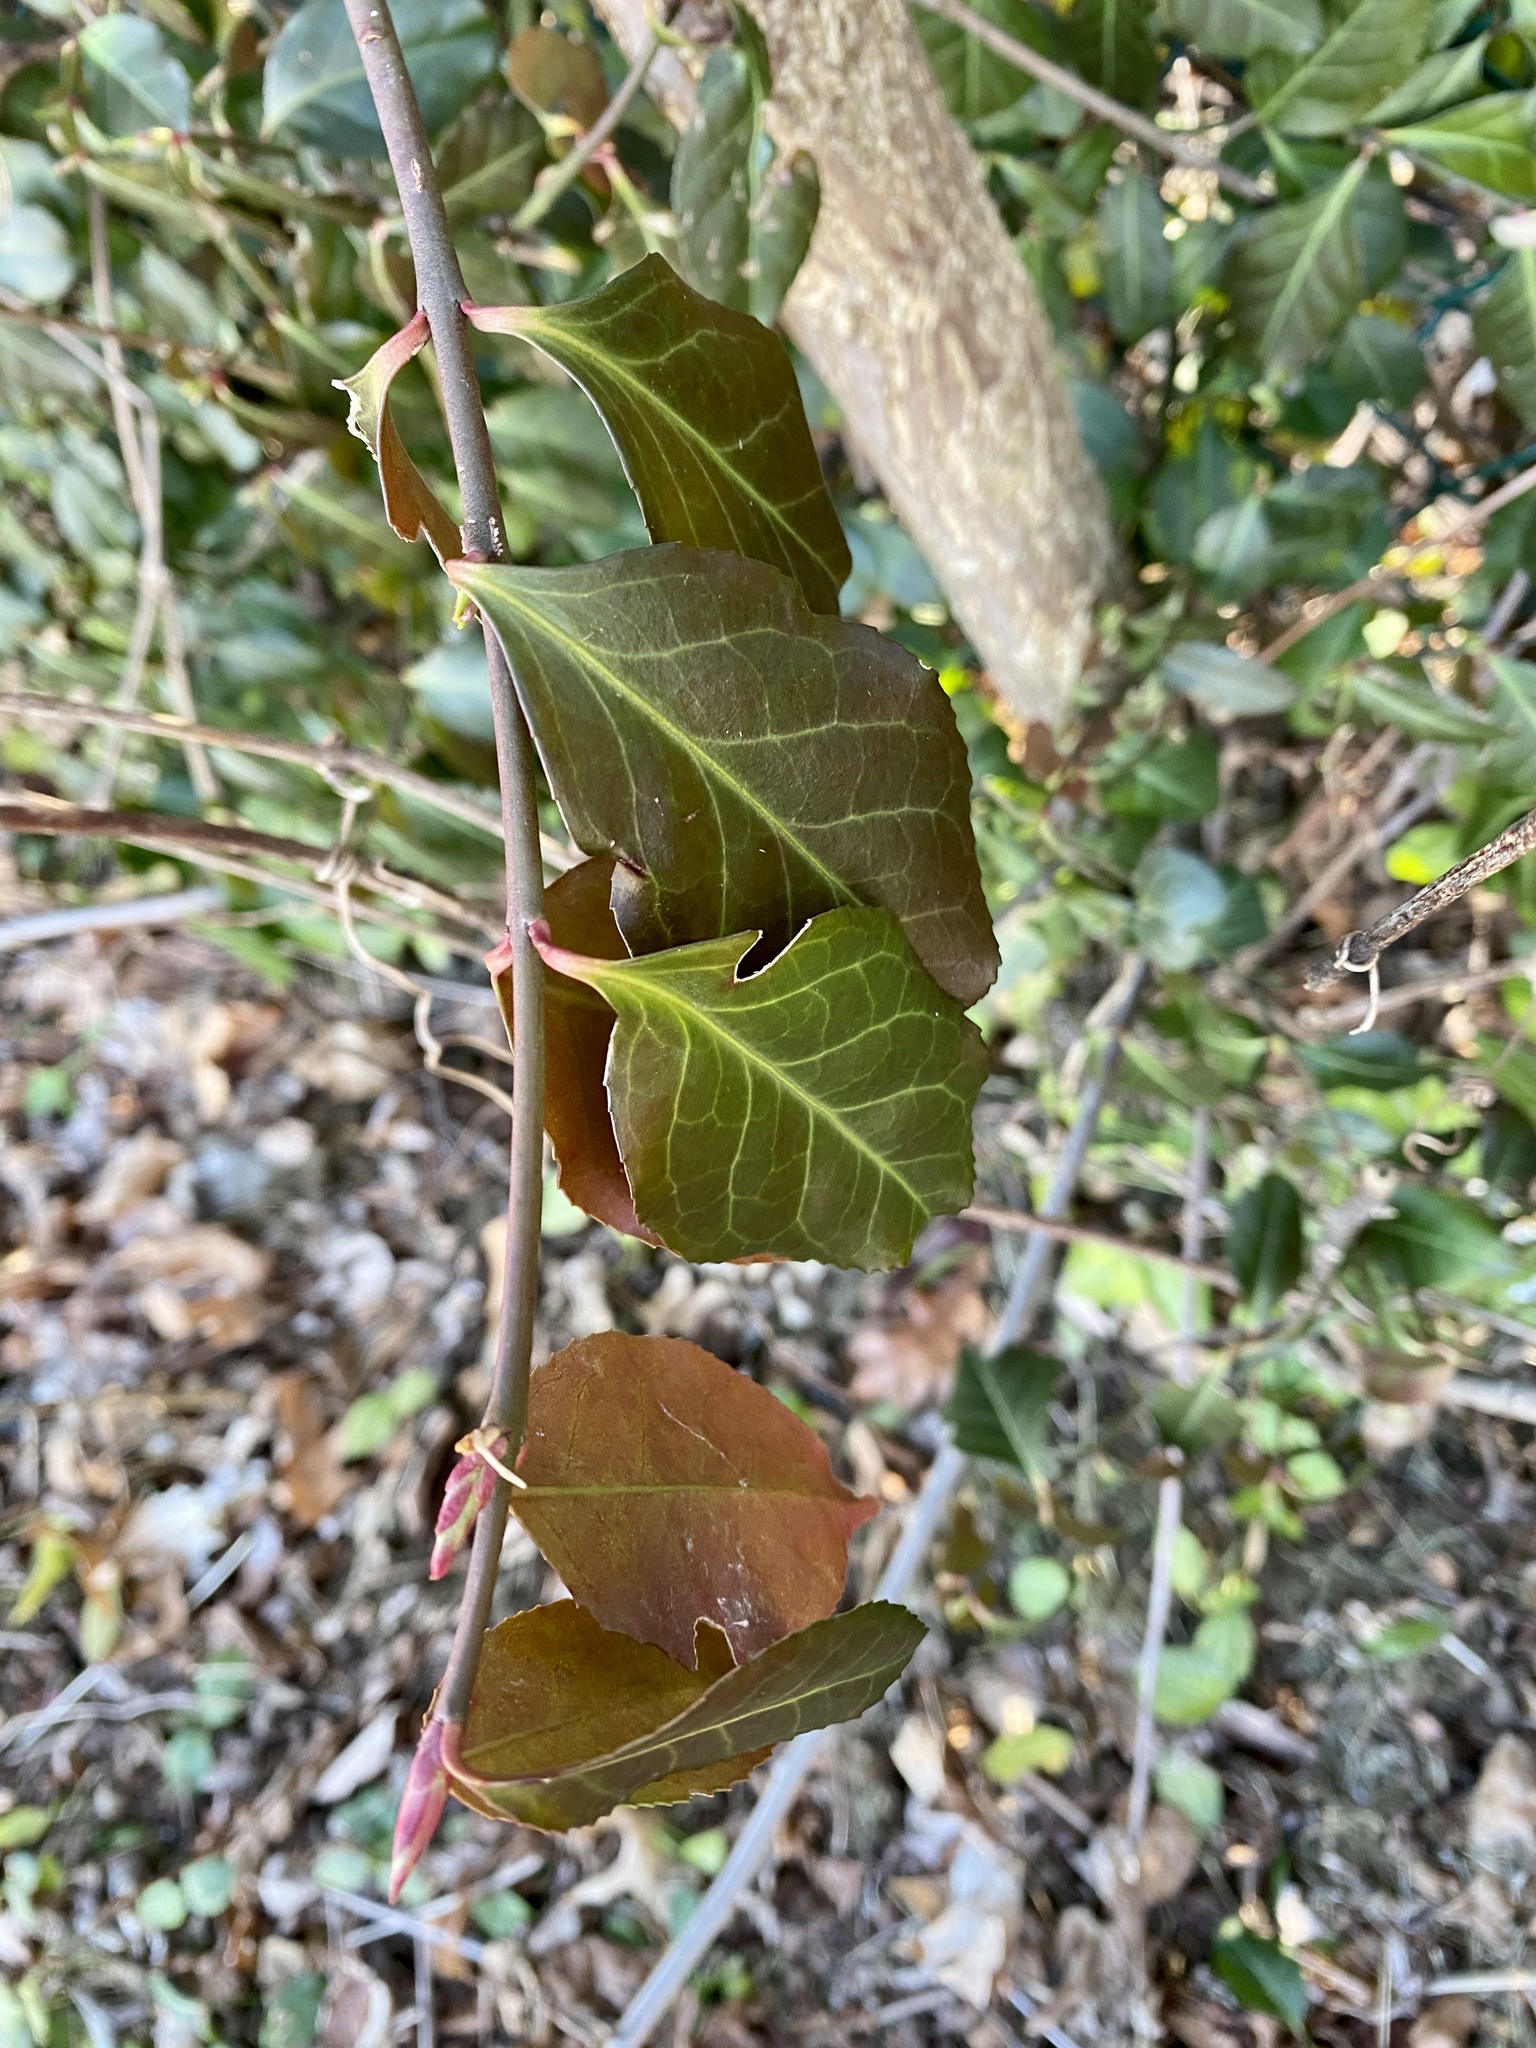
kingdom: Plantae
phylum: Tracheophyta
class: Magnoliopsida
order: Celastrales
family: Celastraceae
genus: Euonymus
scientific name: Euonymus fortunei
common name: Climbing euonymus
